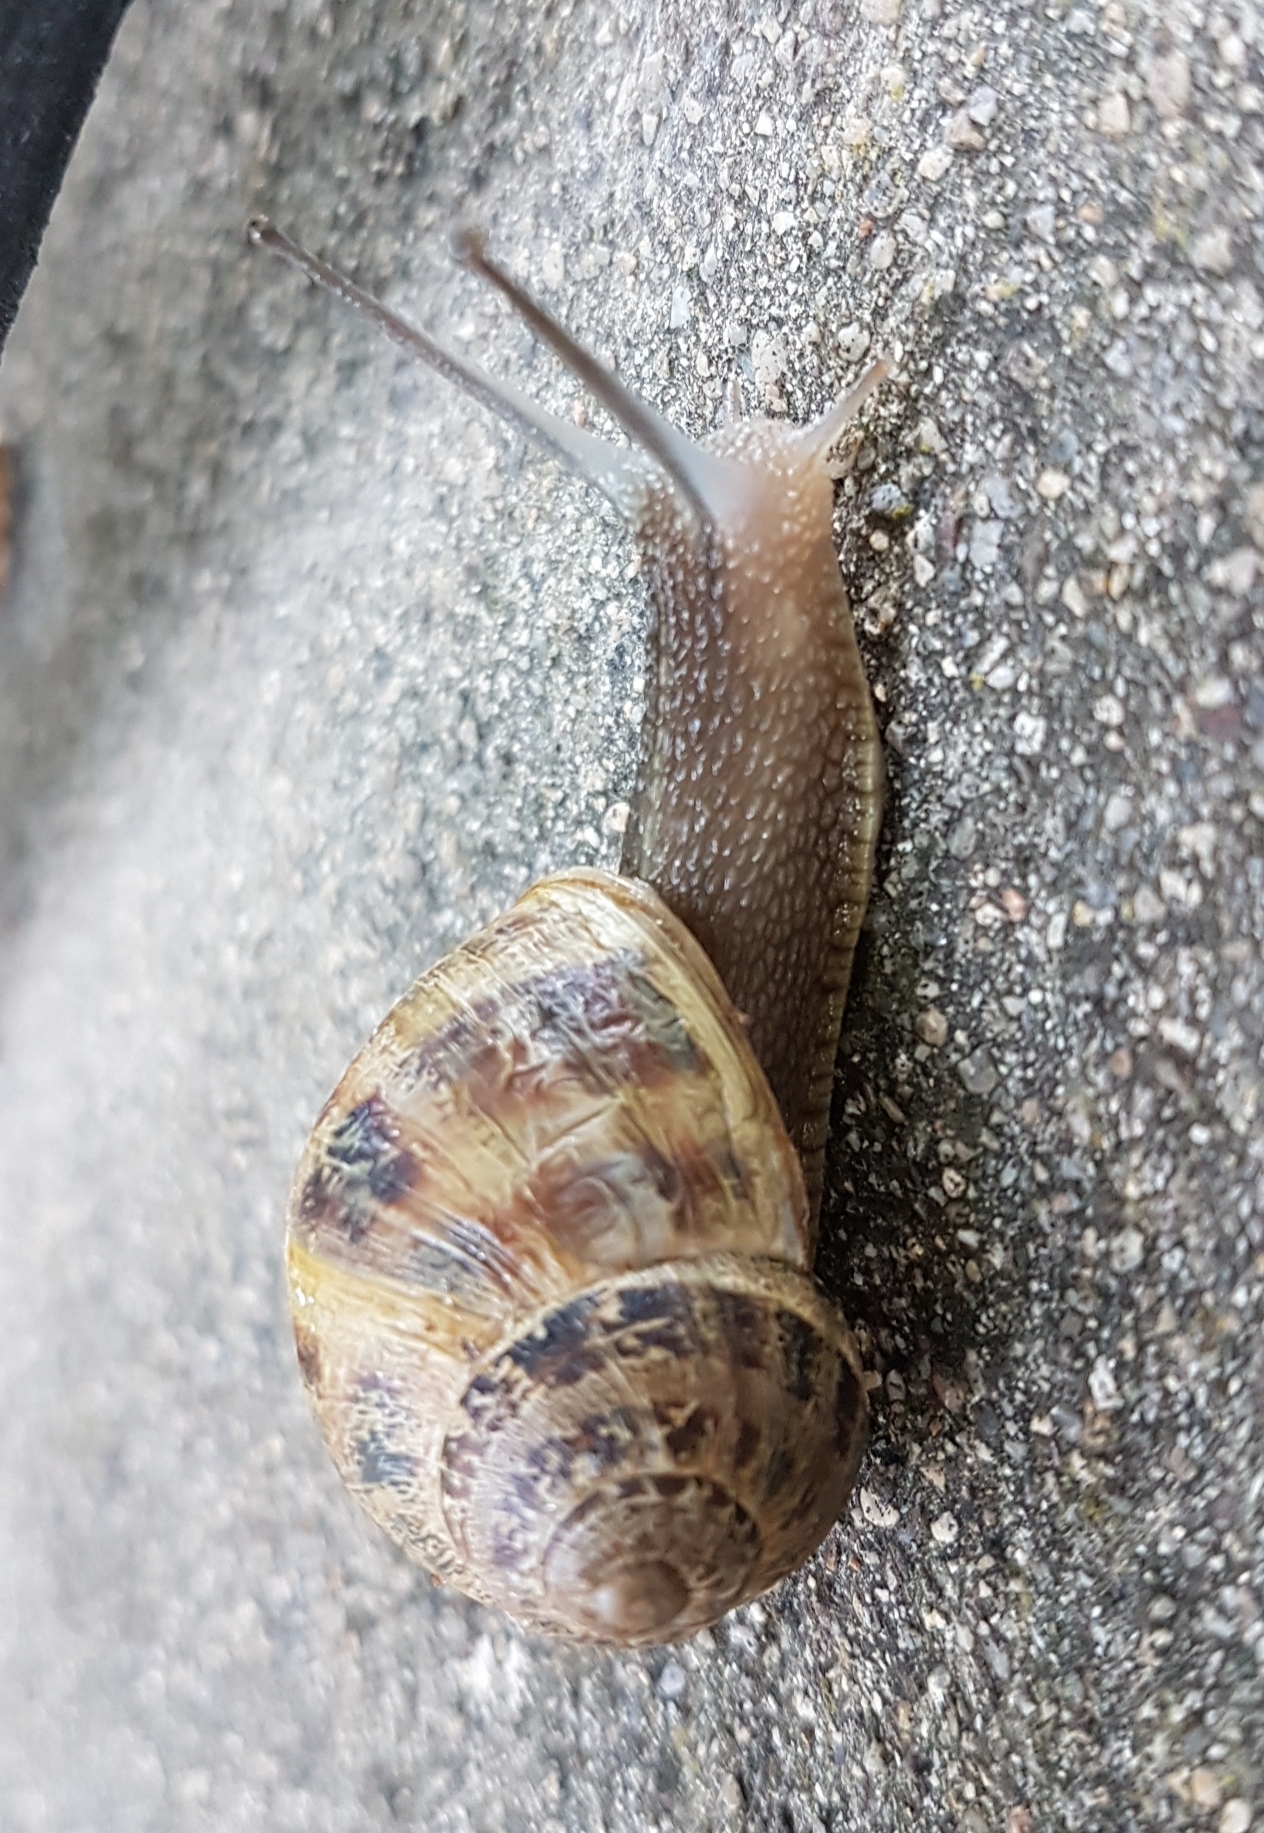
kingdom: Animalia
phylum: Mollusca
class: Gastropoda
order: Stylommatophora
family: Helicidae
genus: Cornu
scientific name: Cornu aspersum
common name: Brown garden snail
